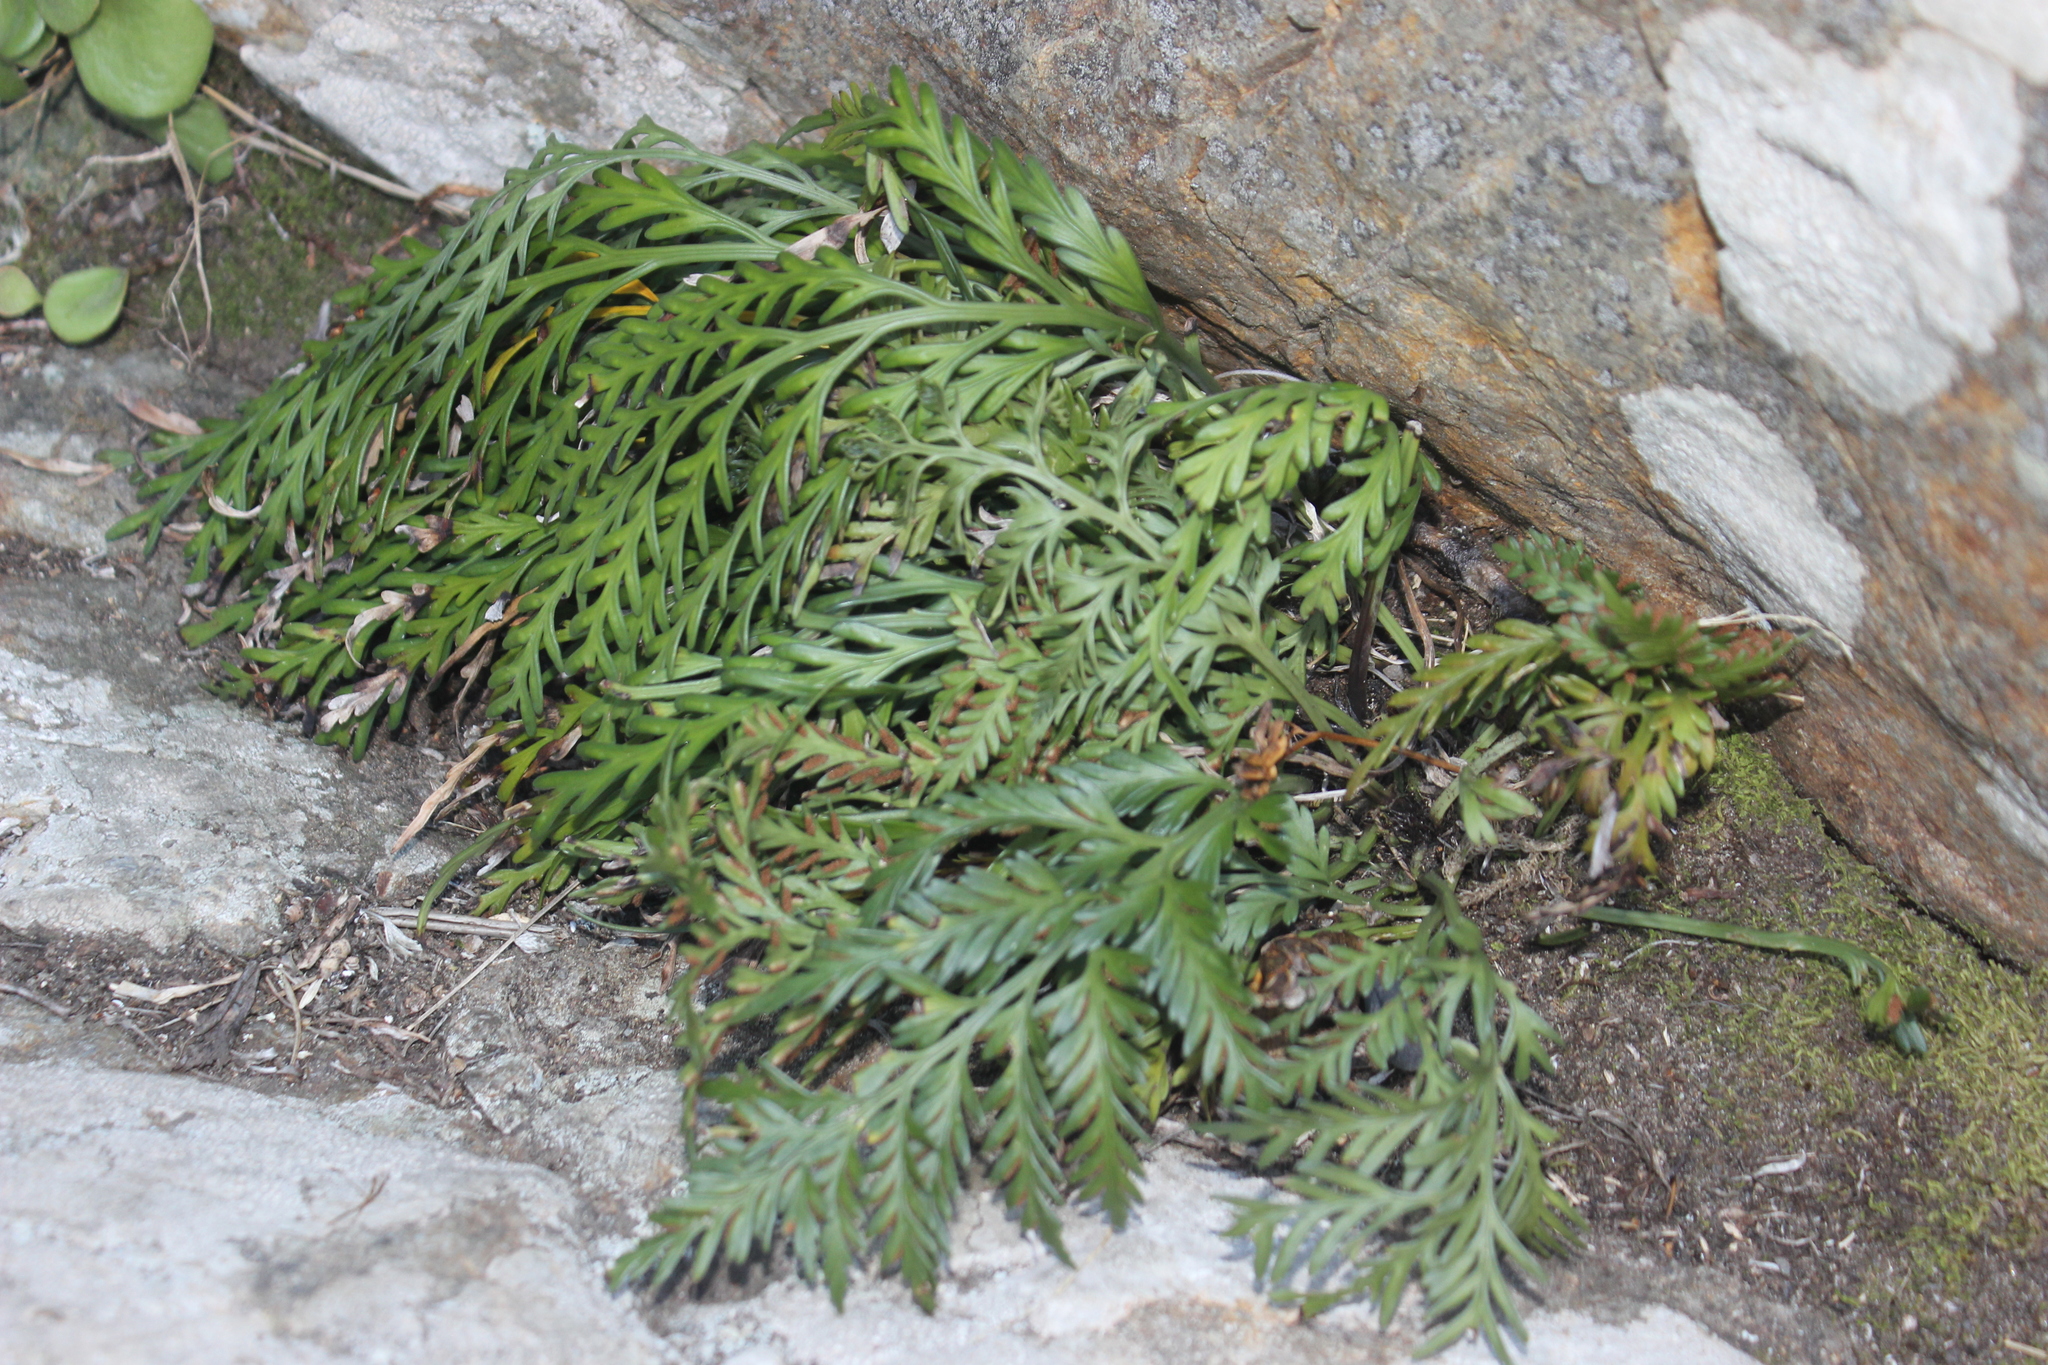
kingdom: Plantae
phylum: Tracheophyta
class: Polypodiopsida
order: Polypodiales
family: Aspleniaceae
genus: Asplenium
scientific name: Asplenium appendiculatum
